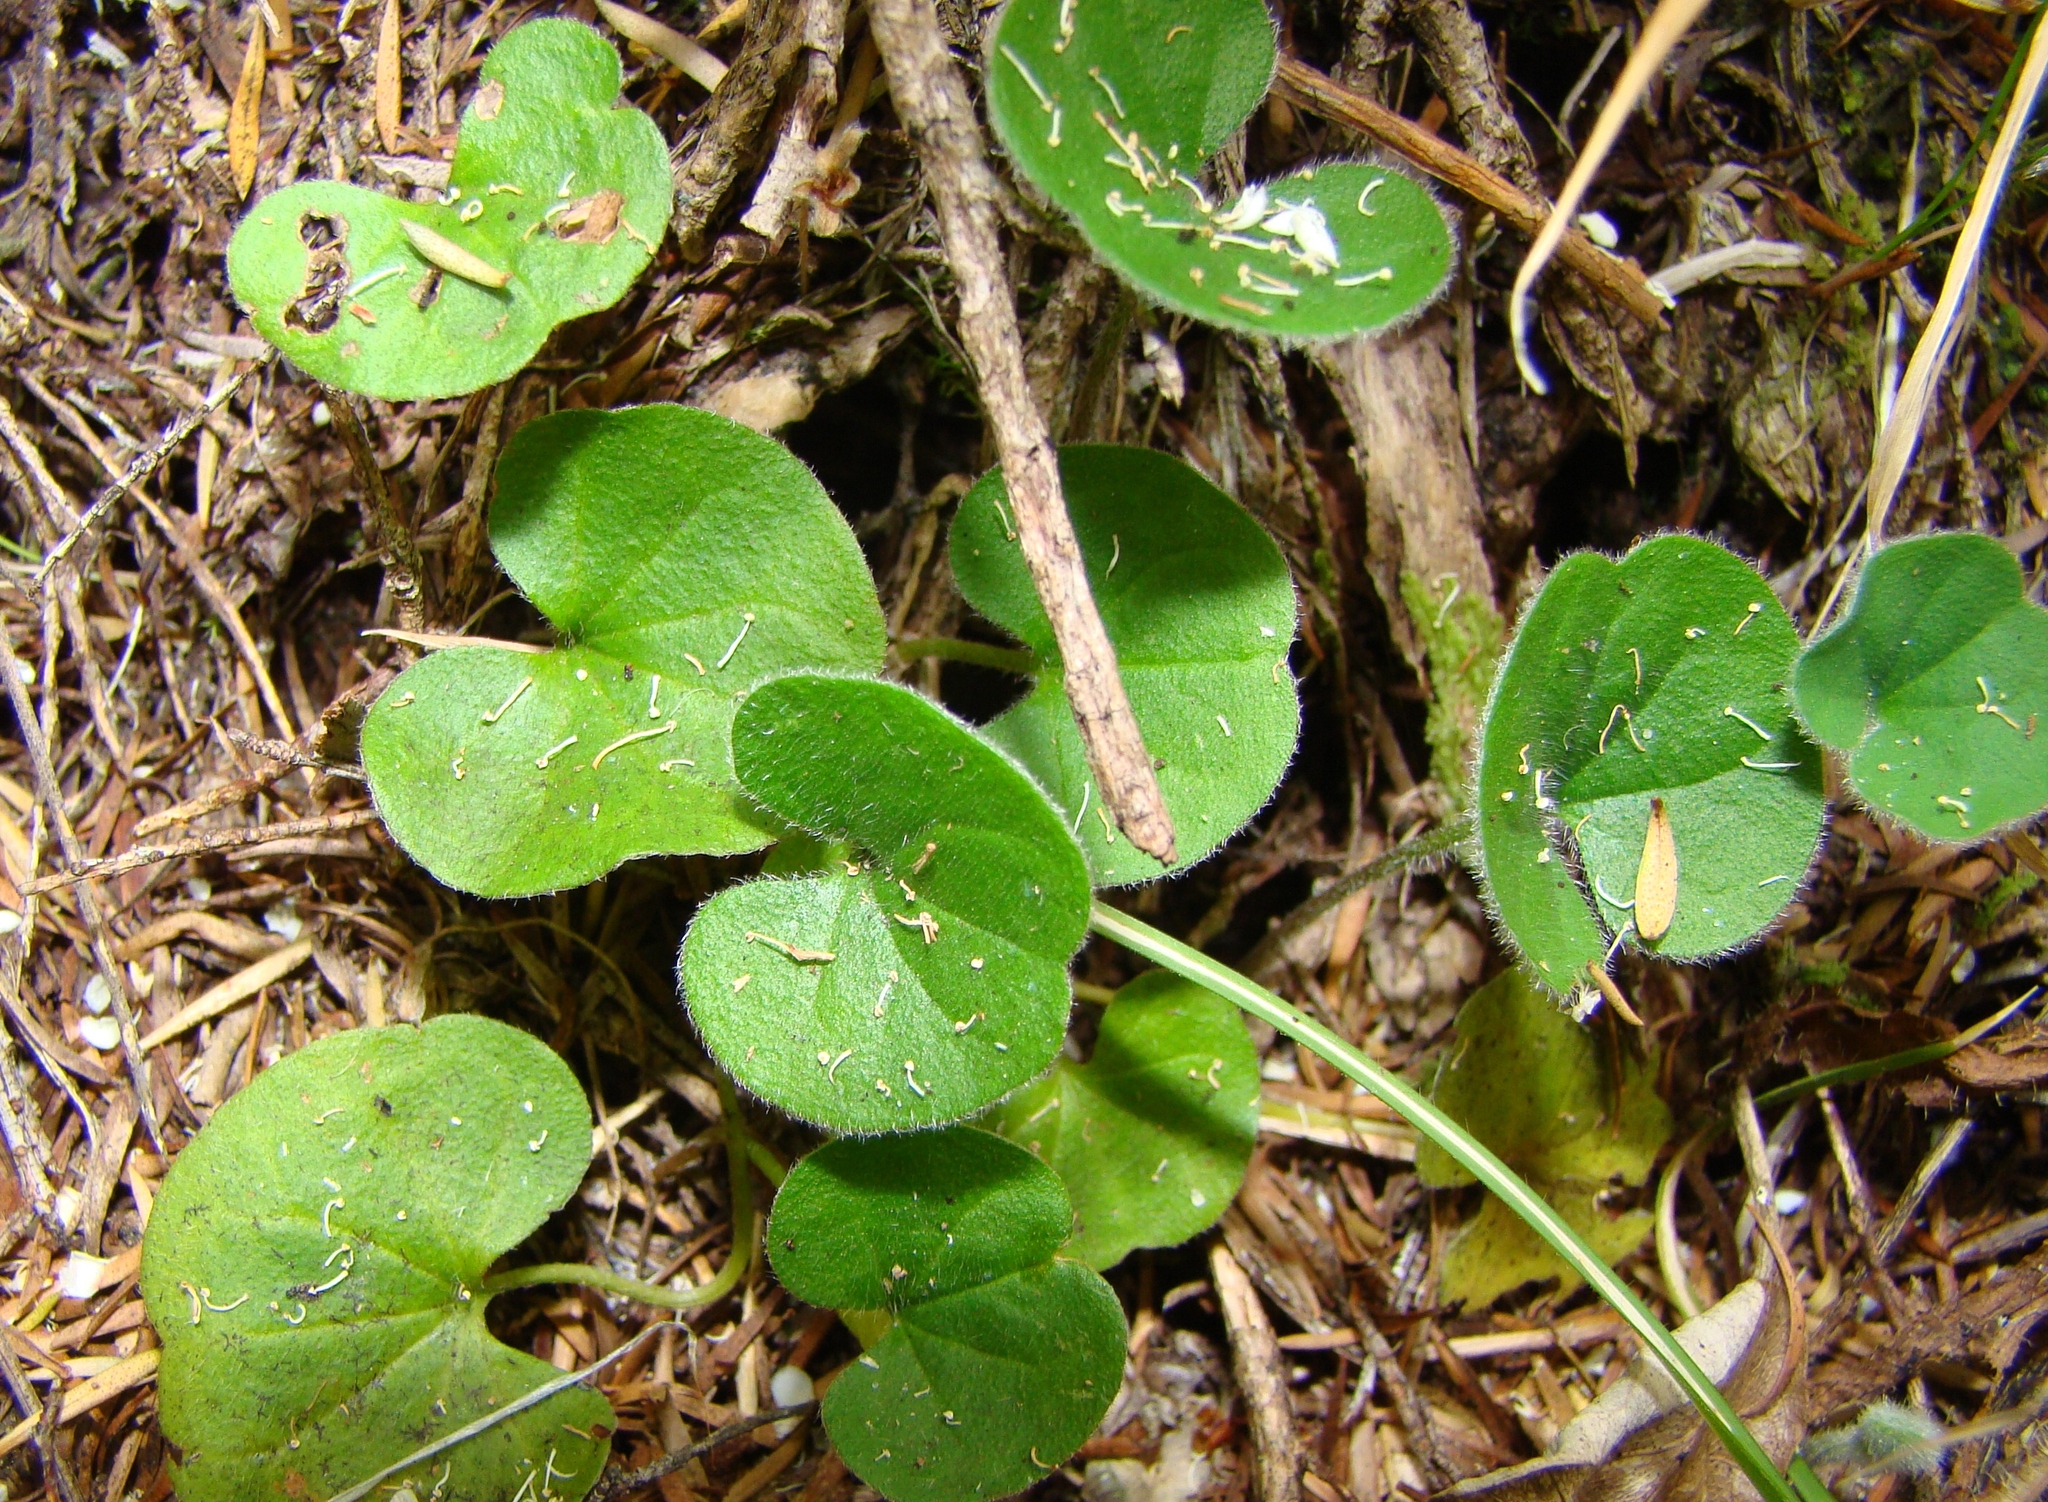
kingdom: Plantae
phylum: Tracheophyta
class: Magnoliopsida
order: Solanales
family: Convolvulaceae
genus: Dichondra
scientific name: Dichondra repens
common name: Kidneyweed
